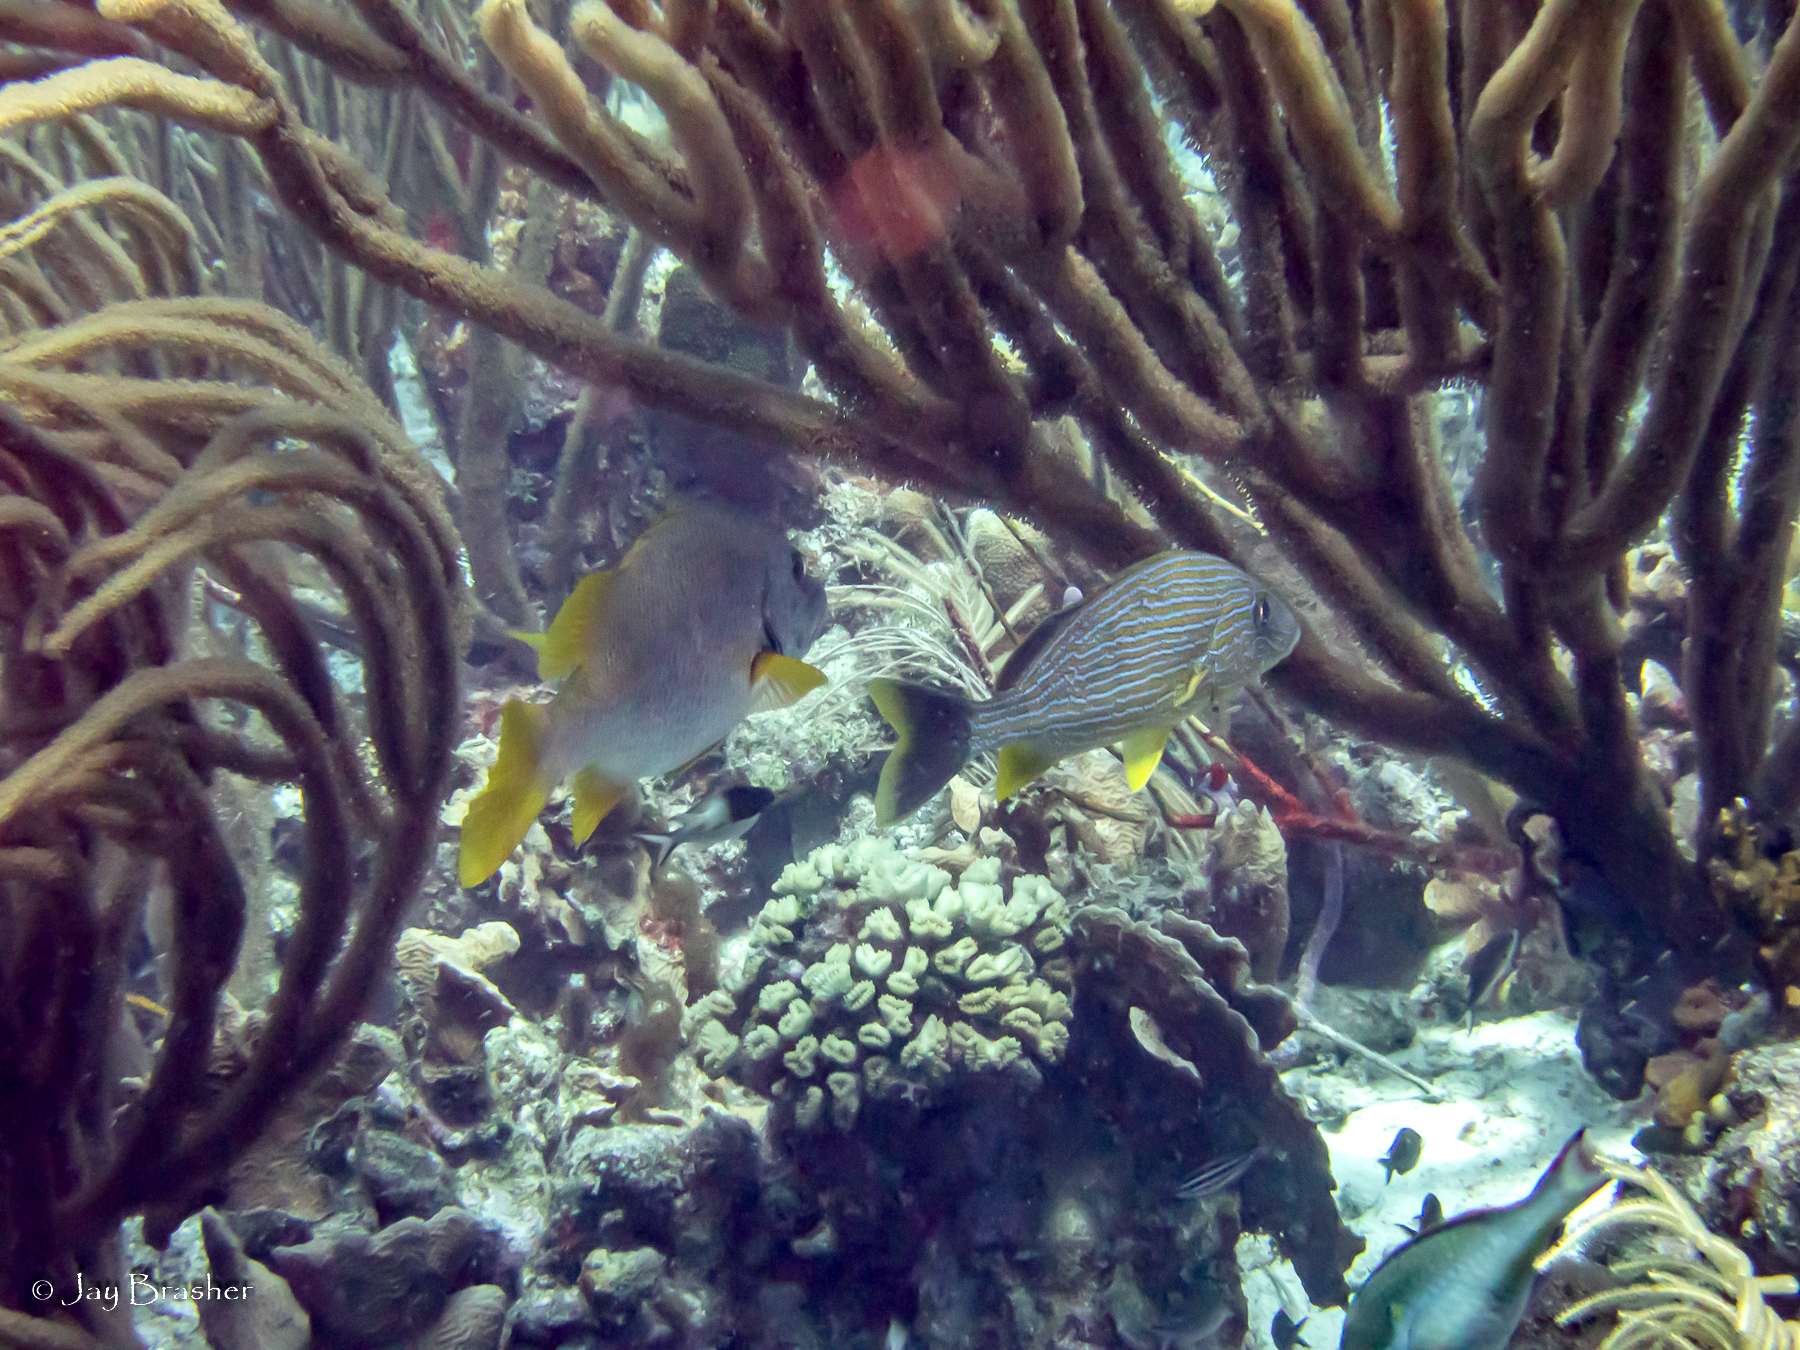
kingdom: Animalia
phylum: Chordata
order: Perciformes
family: Haemulidae
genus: Haemulon
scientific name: Haemulon sciurus
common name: Bluestriped grunt
